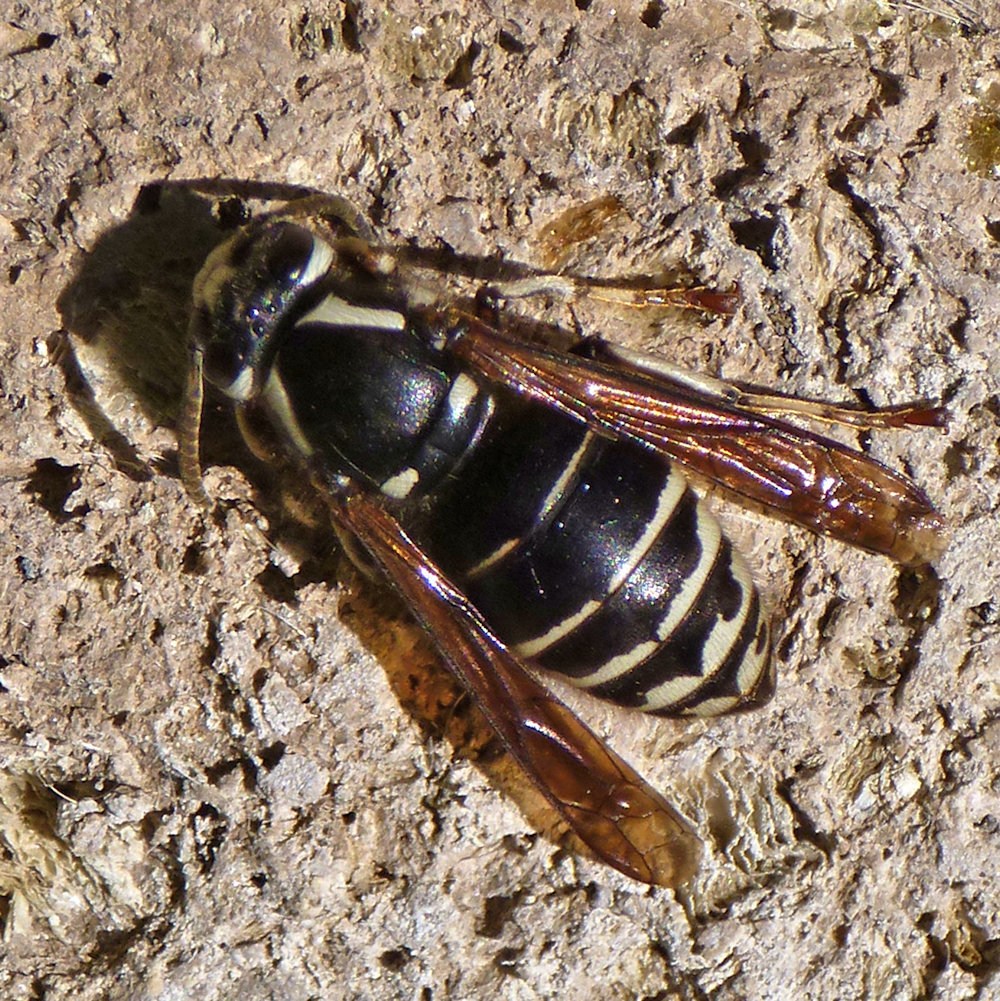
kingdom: Animalia
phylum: Arthropoda
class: Insecta
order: Hymenoptera
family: Vespidae
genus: Vespula
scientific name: Vespula consobrina
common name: Blackjacket
